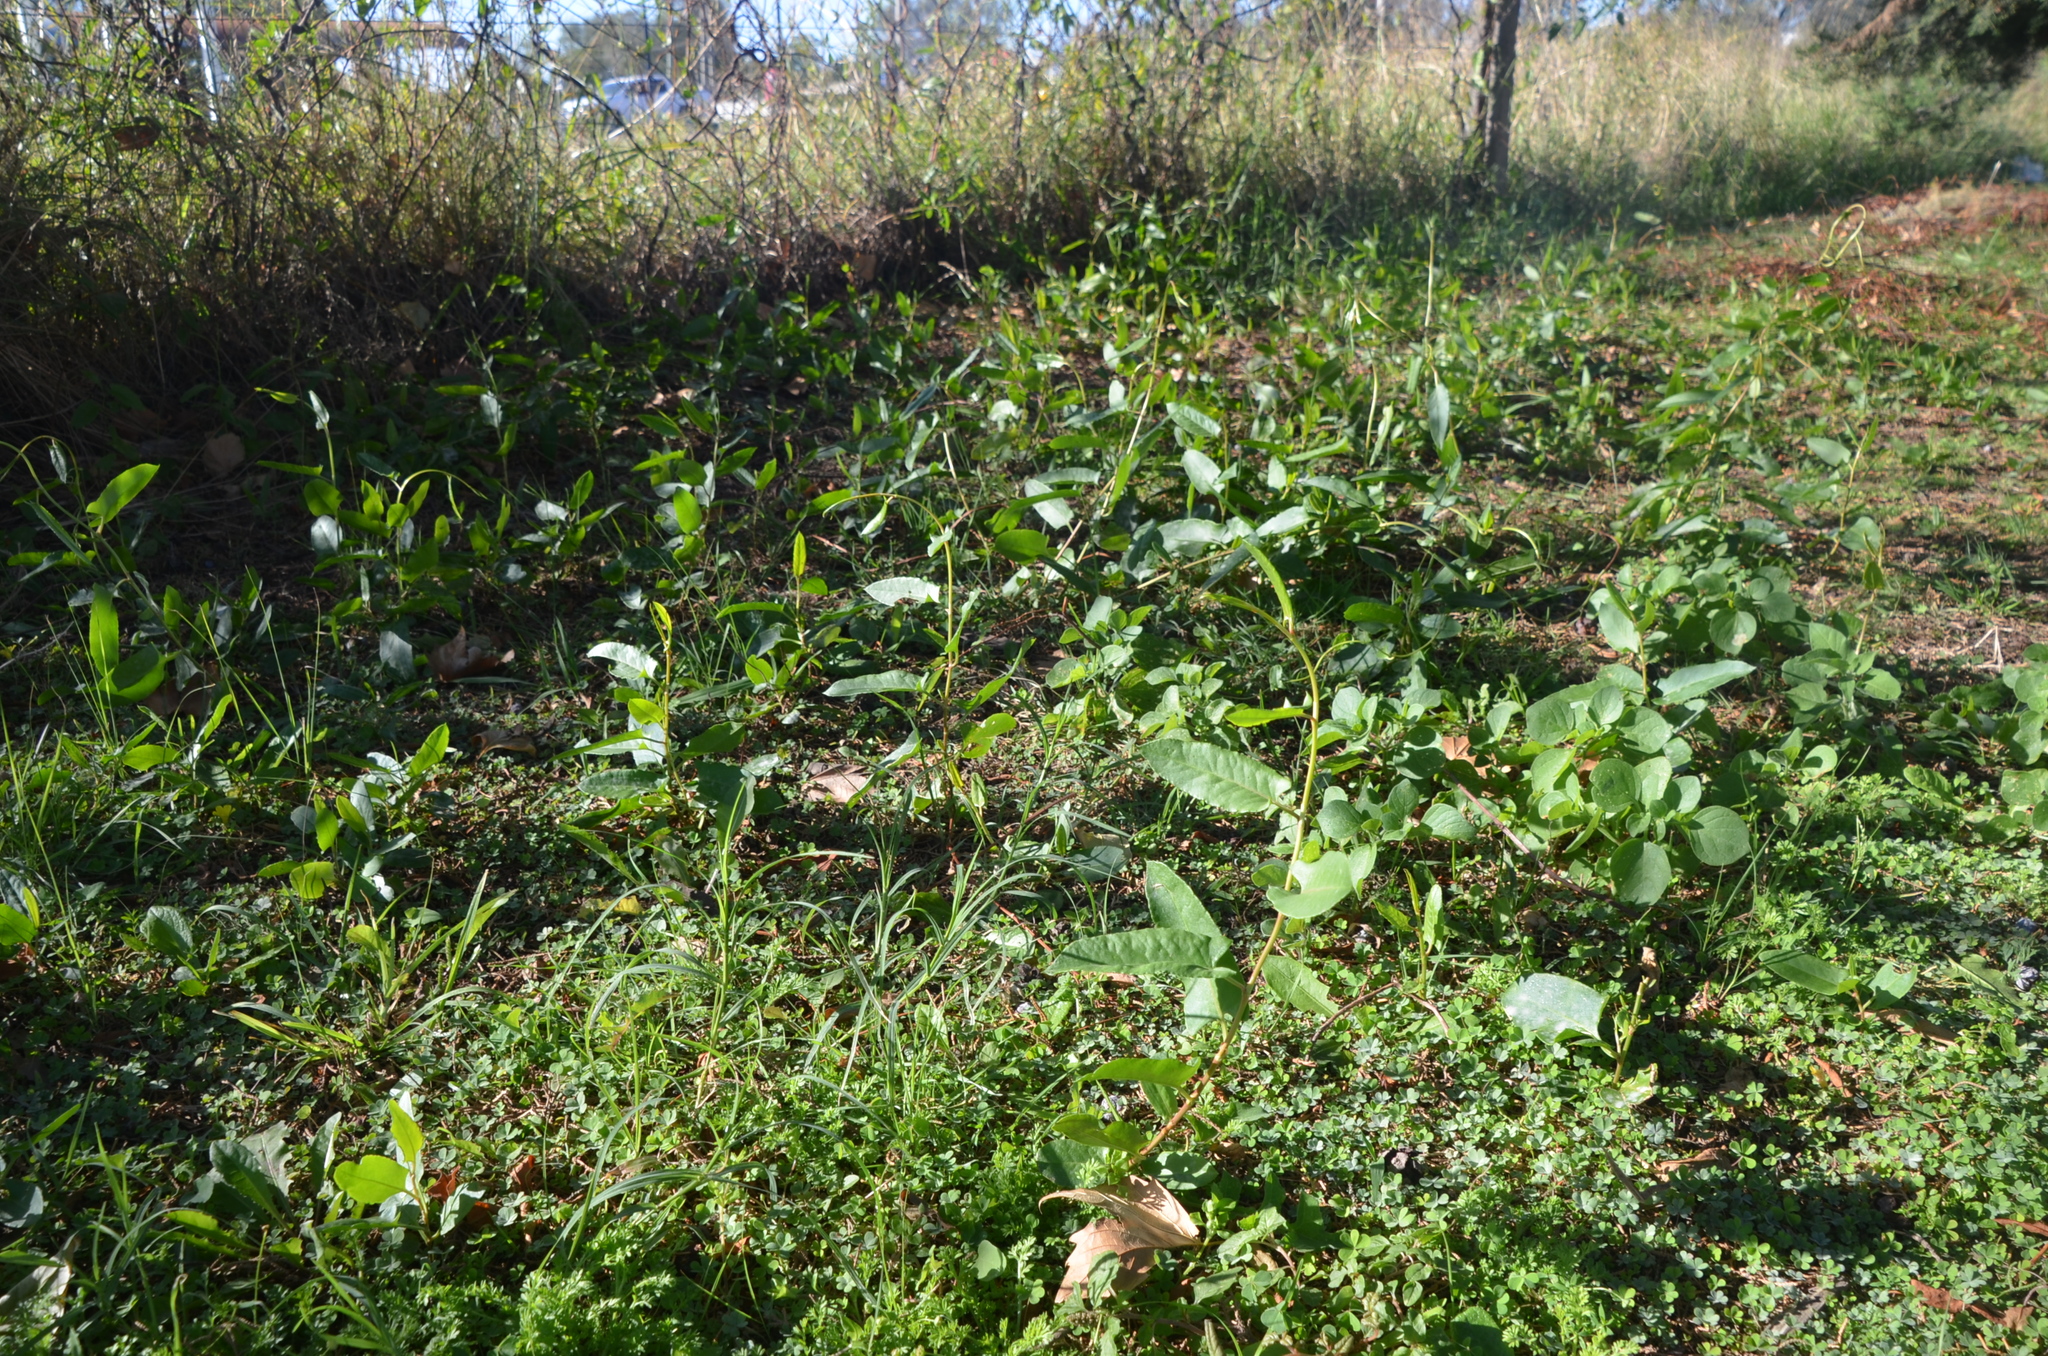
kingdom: Plantae
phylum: Tracheophyta
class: Magnoliopsida
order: Caryophyllales
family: Polygonaceae
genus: Muehlenbeckia
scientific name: Muehlenbeckia sagittifolia
